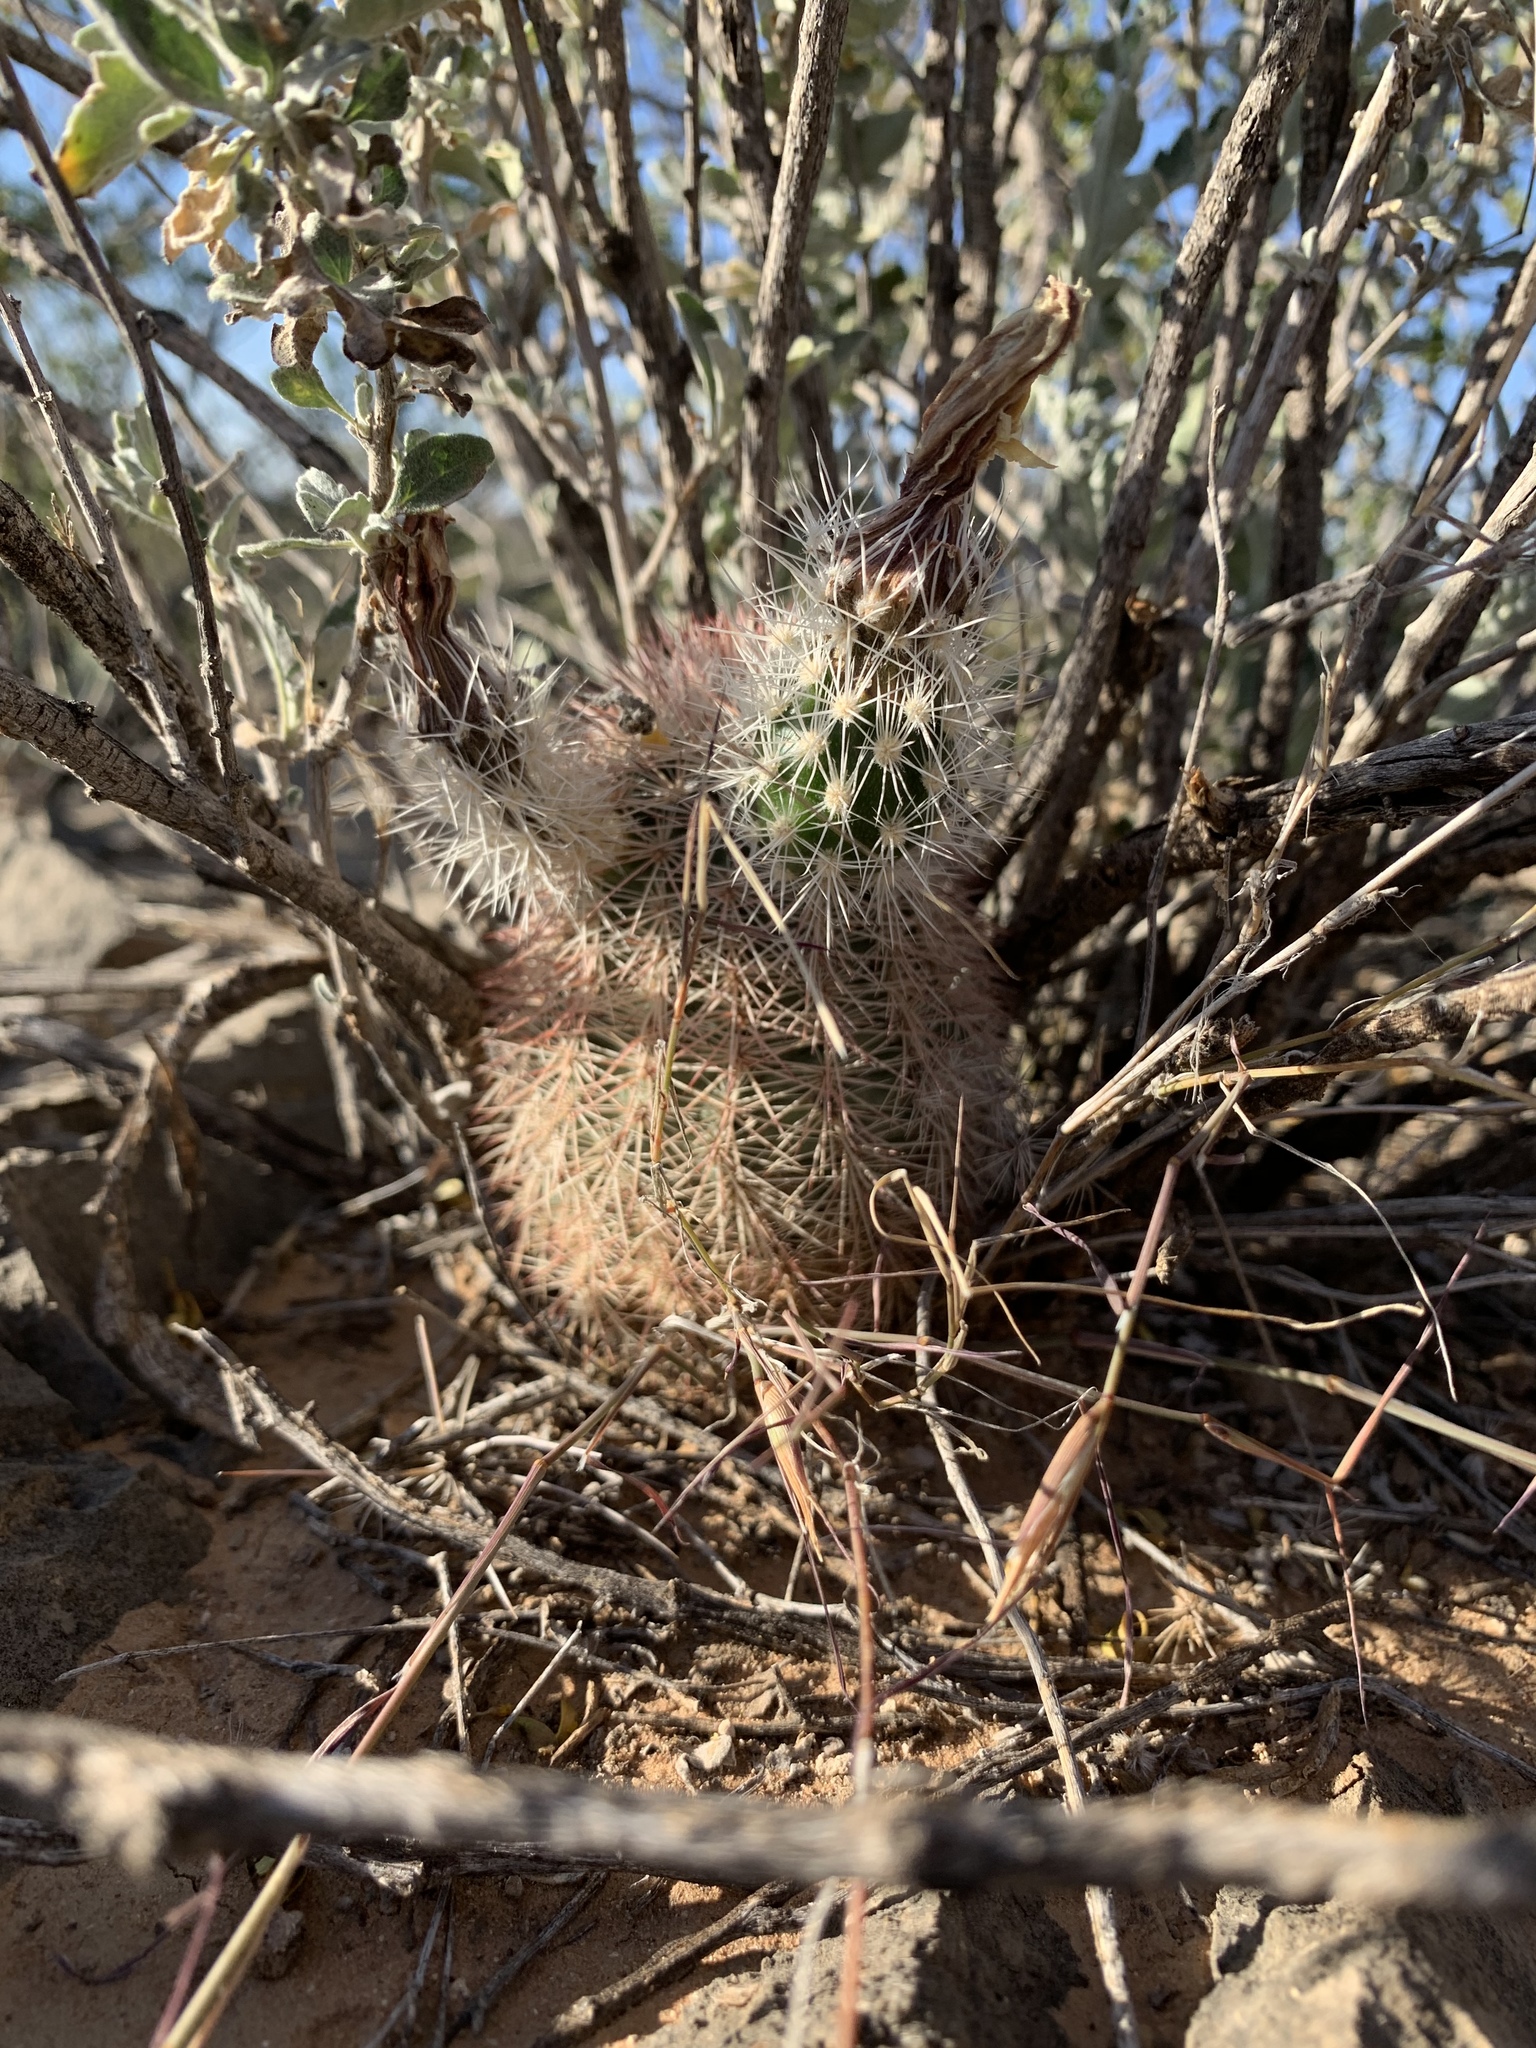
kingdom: Plantae
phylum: Tracheophyta
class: Magnoliopsida
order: Caryophyllales
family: Cactaceae
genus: Echinocereus
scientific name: Echinocereus dasyacanthus
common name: Spiny hedgehog cactus
